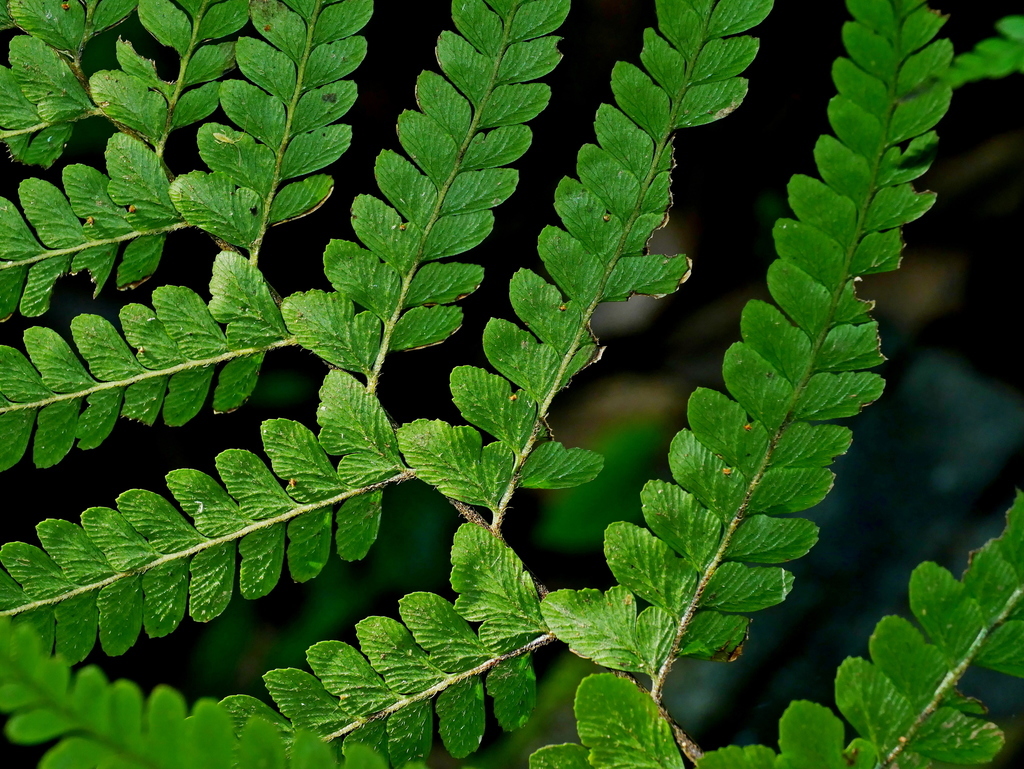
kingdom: Plantae
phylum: Tracheophyta
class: Polypodiopsida
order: Polypodiales
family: Dennstaedtiaceae
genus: Microlepia
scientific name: Microlepia strigosa
